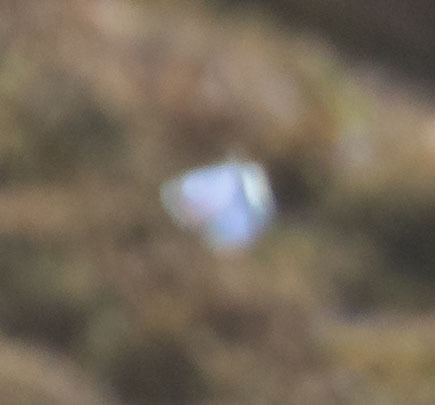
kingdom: Animalia
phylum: Arthropoda
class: Insecta
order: Lepidoptera
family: Lycaenidae
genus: Philotes
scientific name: Philotes sonorensis
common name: Sonoran blue
